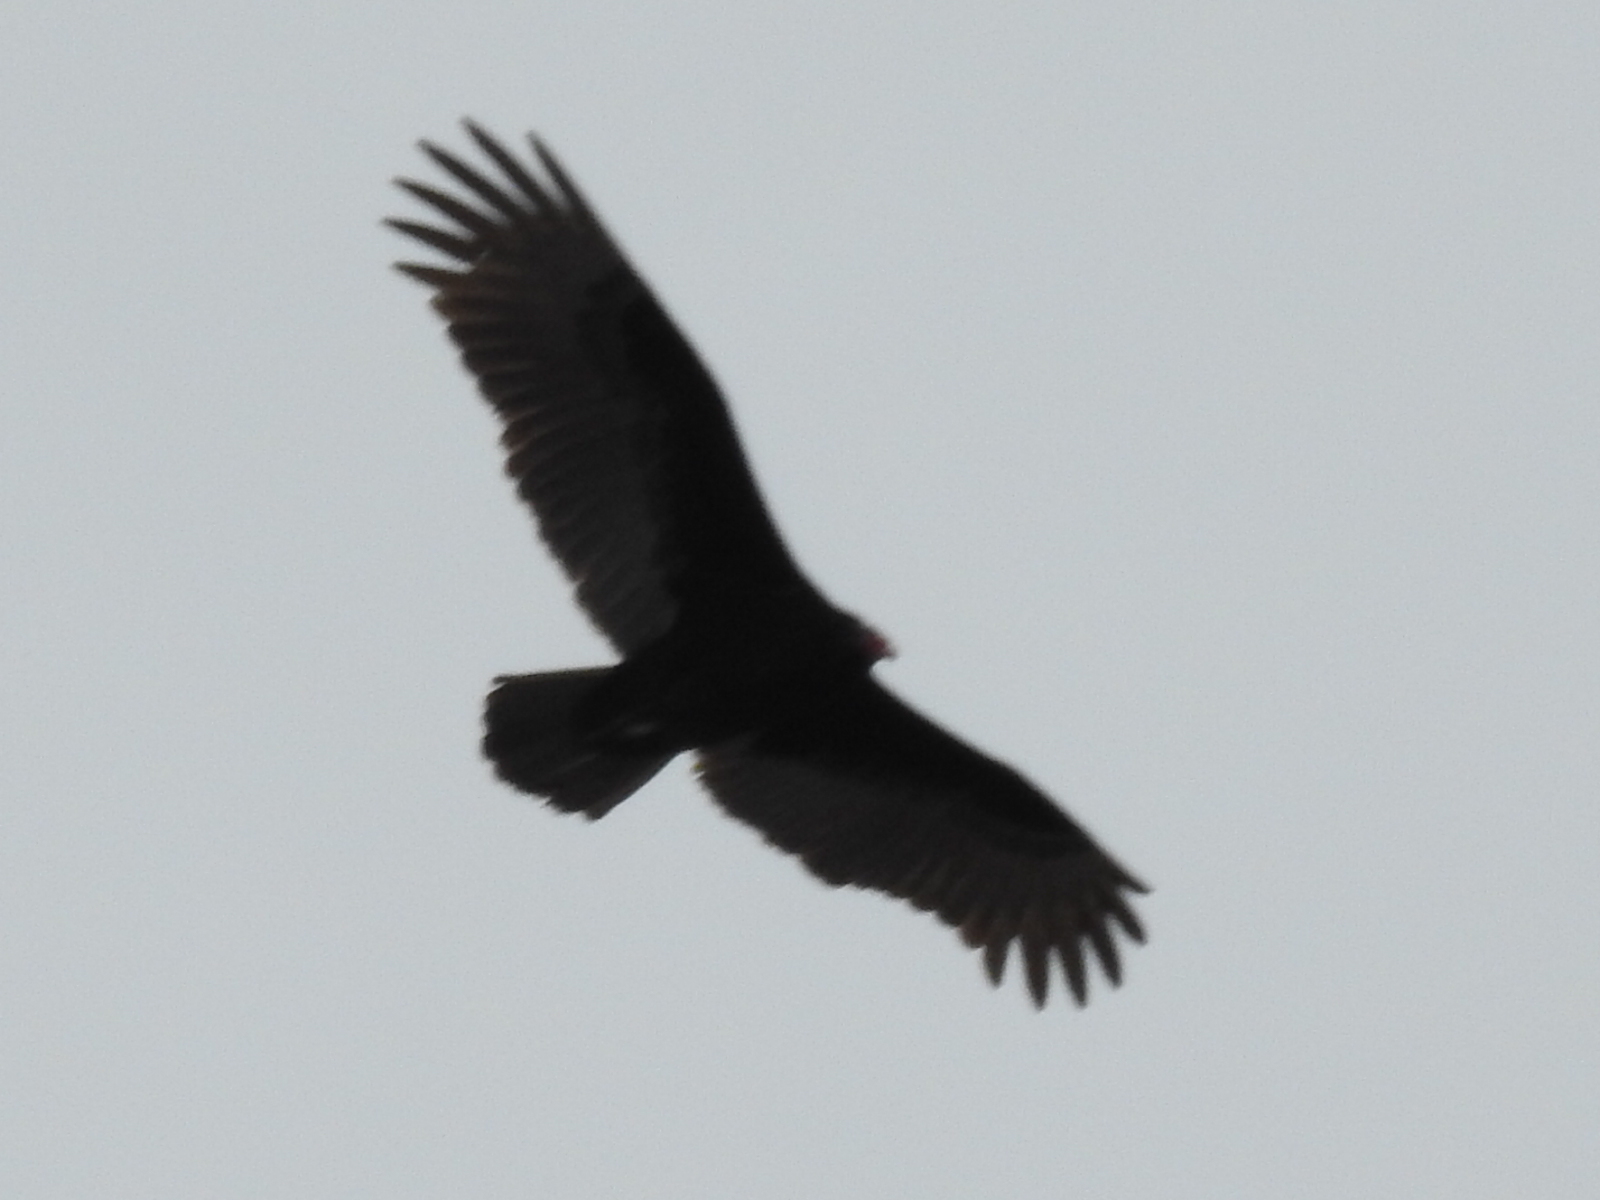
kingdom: Animalia
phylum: Chordata
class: Aves
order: Accipitriformes
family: Cathartidae
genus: Cathartes
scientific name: Cathartes aura
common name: Turkey vulture
